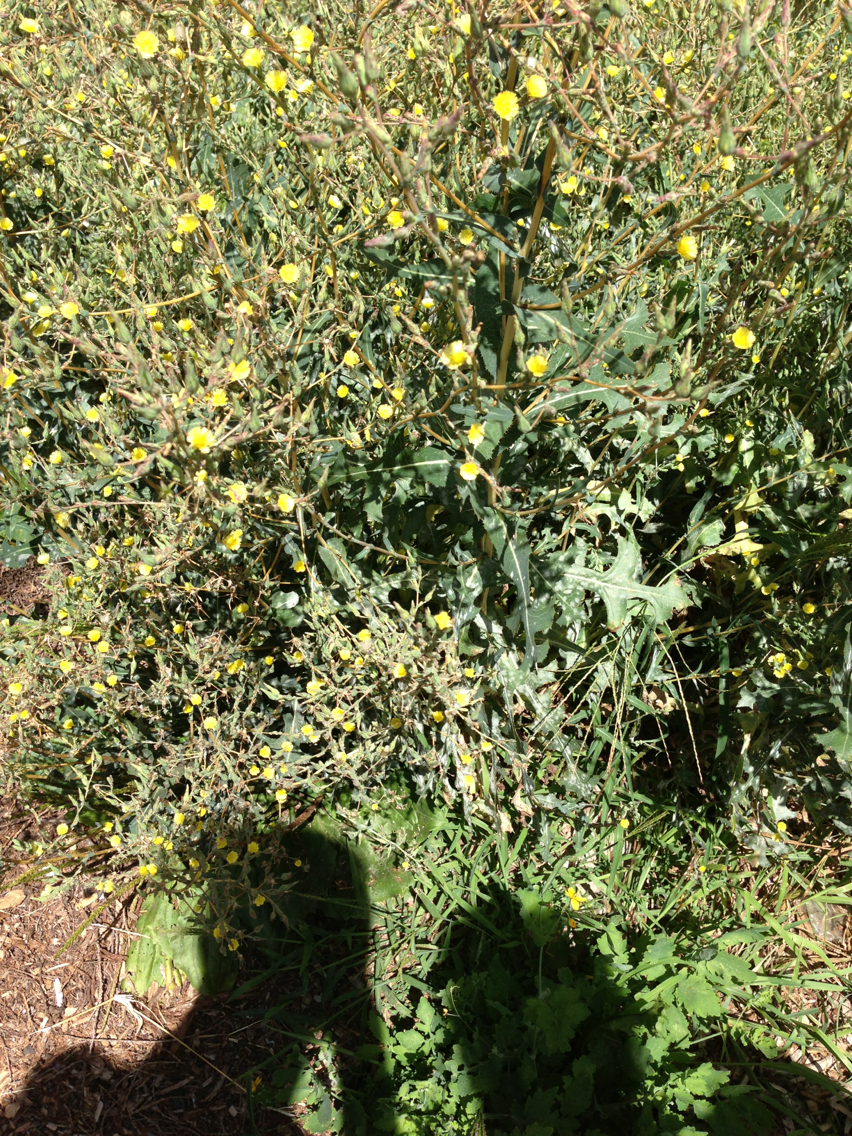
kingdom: Plantae
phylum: Tracheophyta
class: Magnoliopsida
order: Asterales
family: Asteraceae
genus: Lactuca
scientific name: Lactuca serriola
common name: Prickly lettuce
